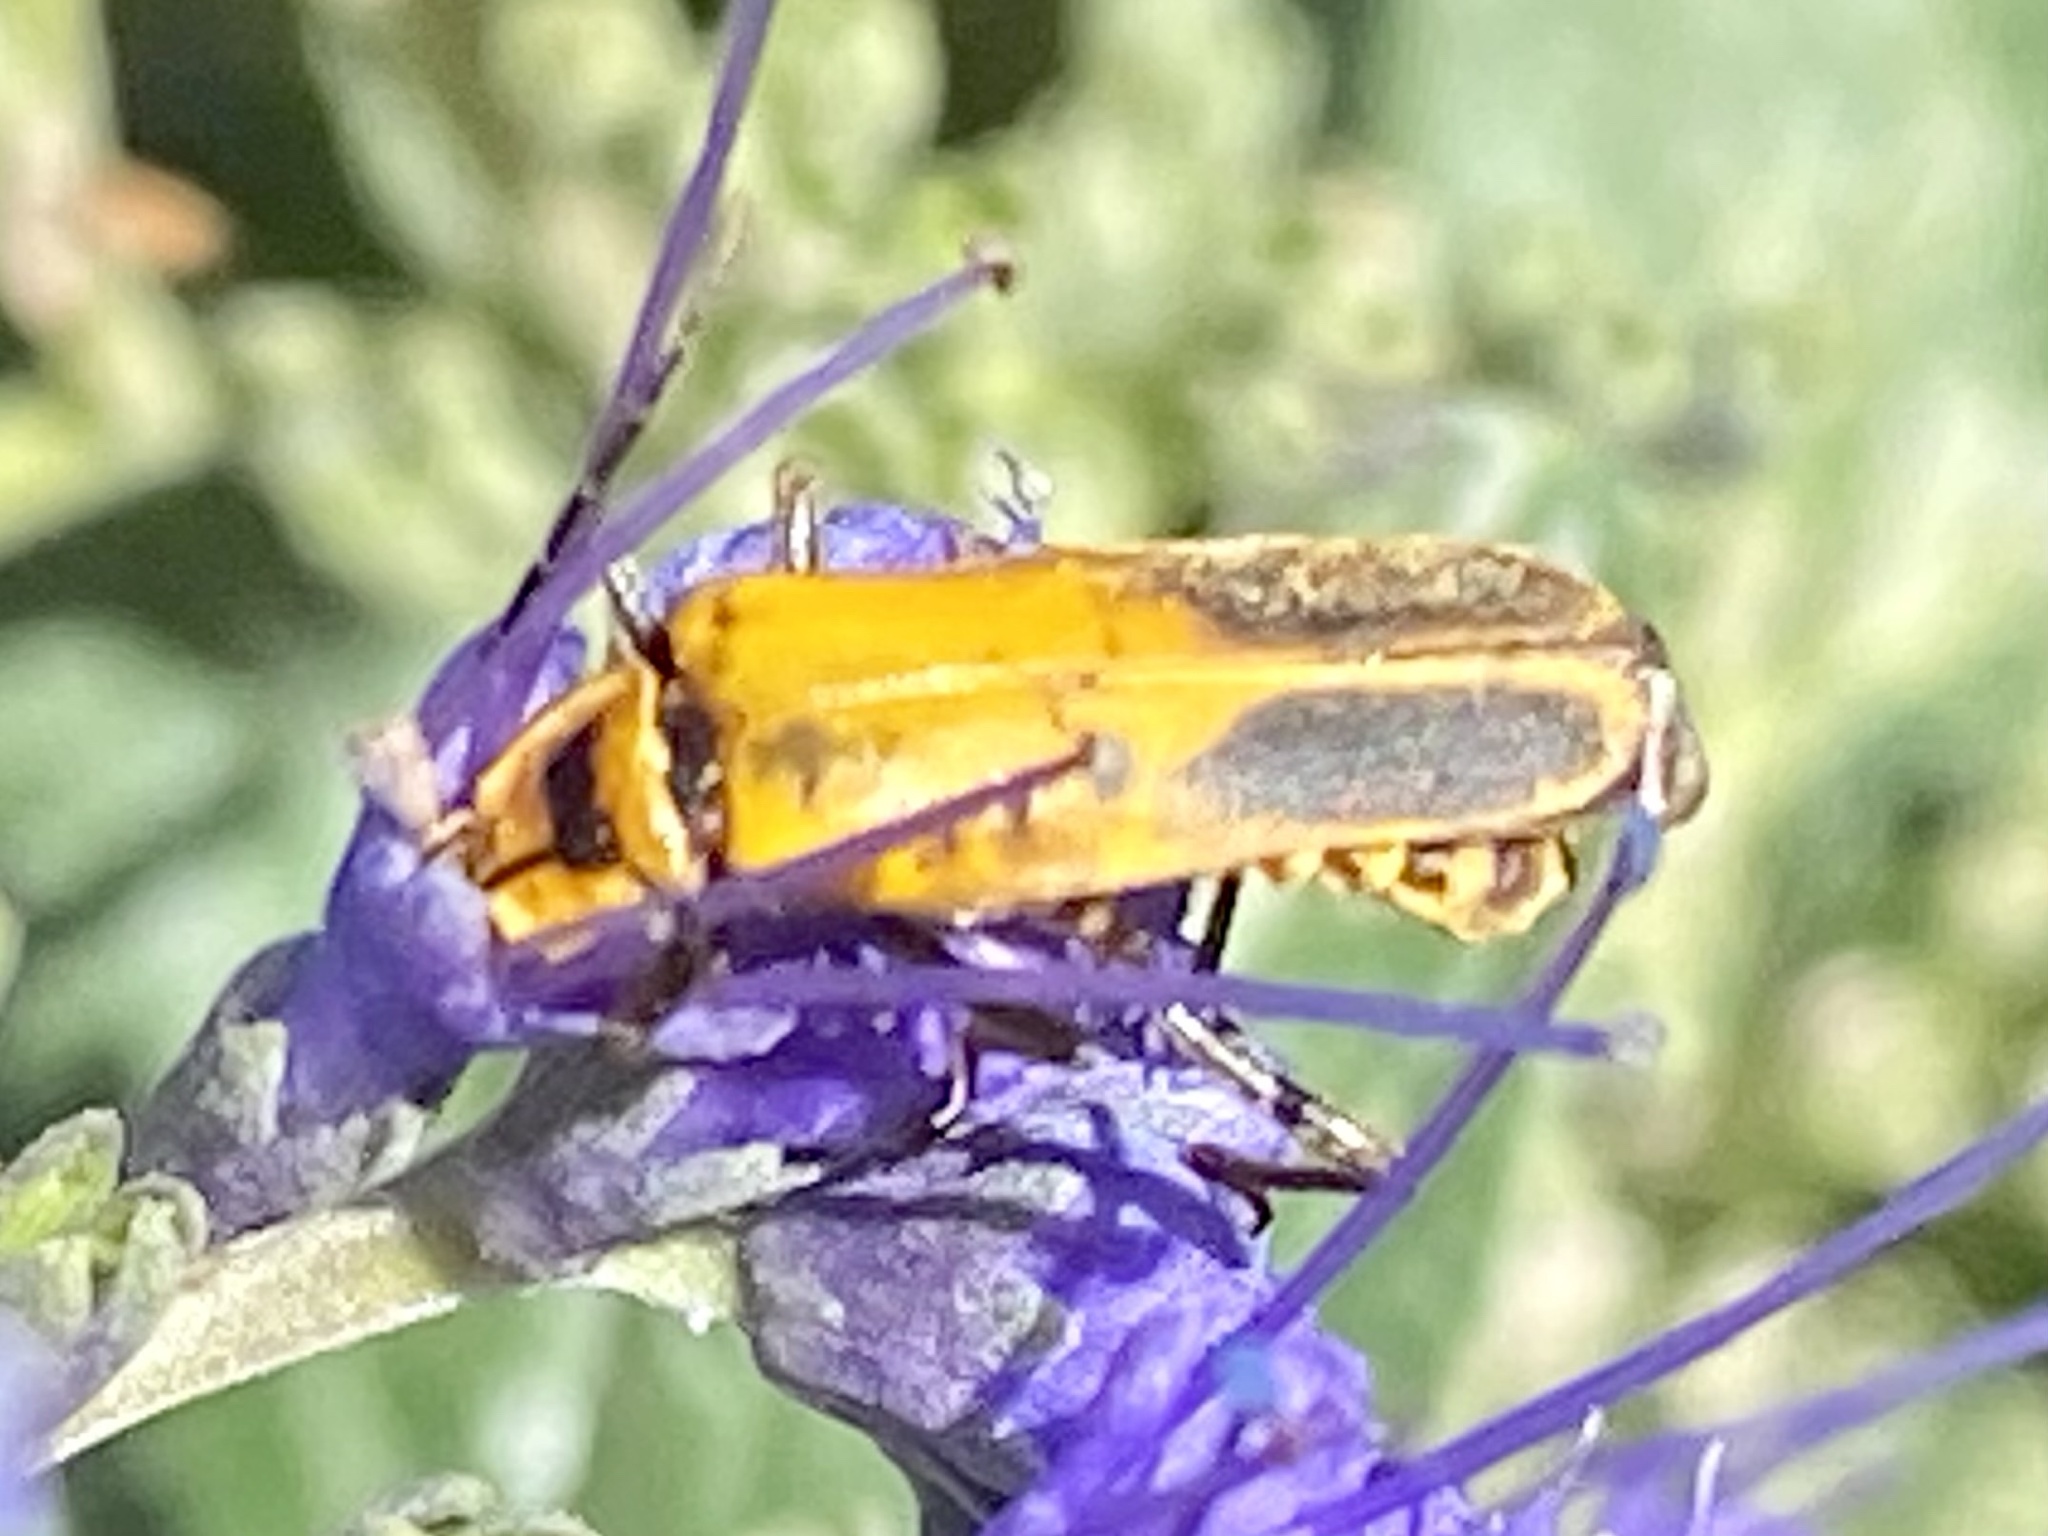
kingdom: Animalia
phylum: Arthropoda
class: Insecta
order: Coleoptera
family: Cantharidae
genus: Chauliognathus
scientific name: Chauliognathus pensylvanicus
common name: Goldenrod soldier beetle
